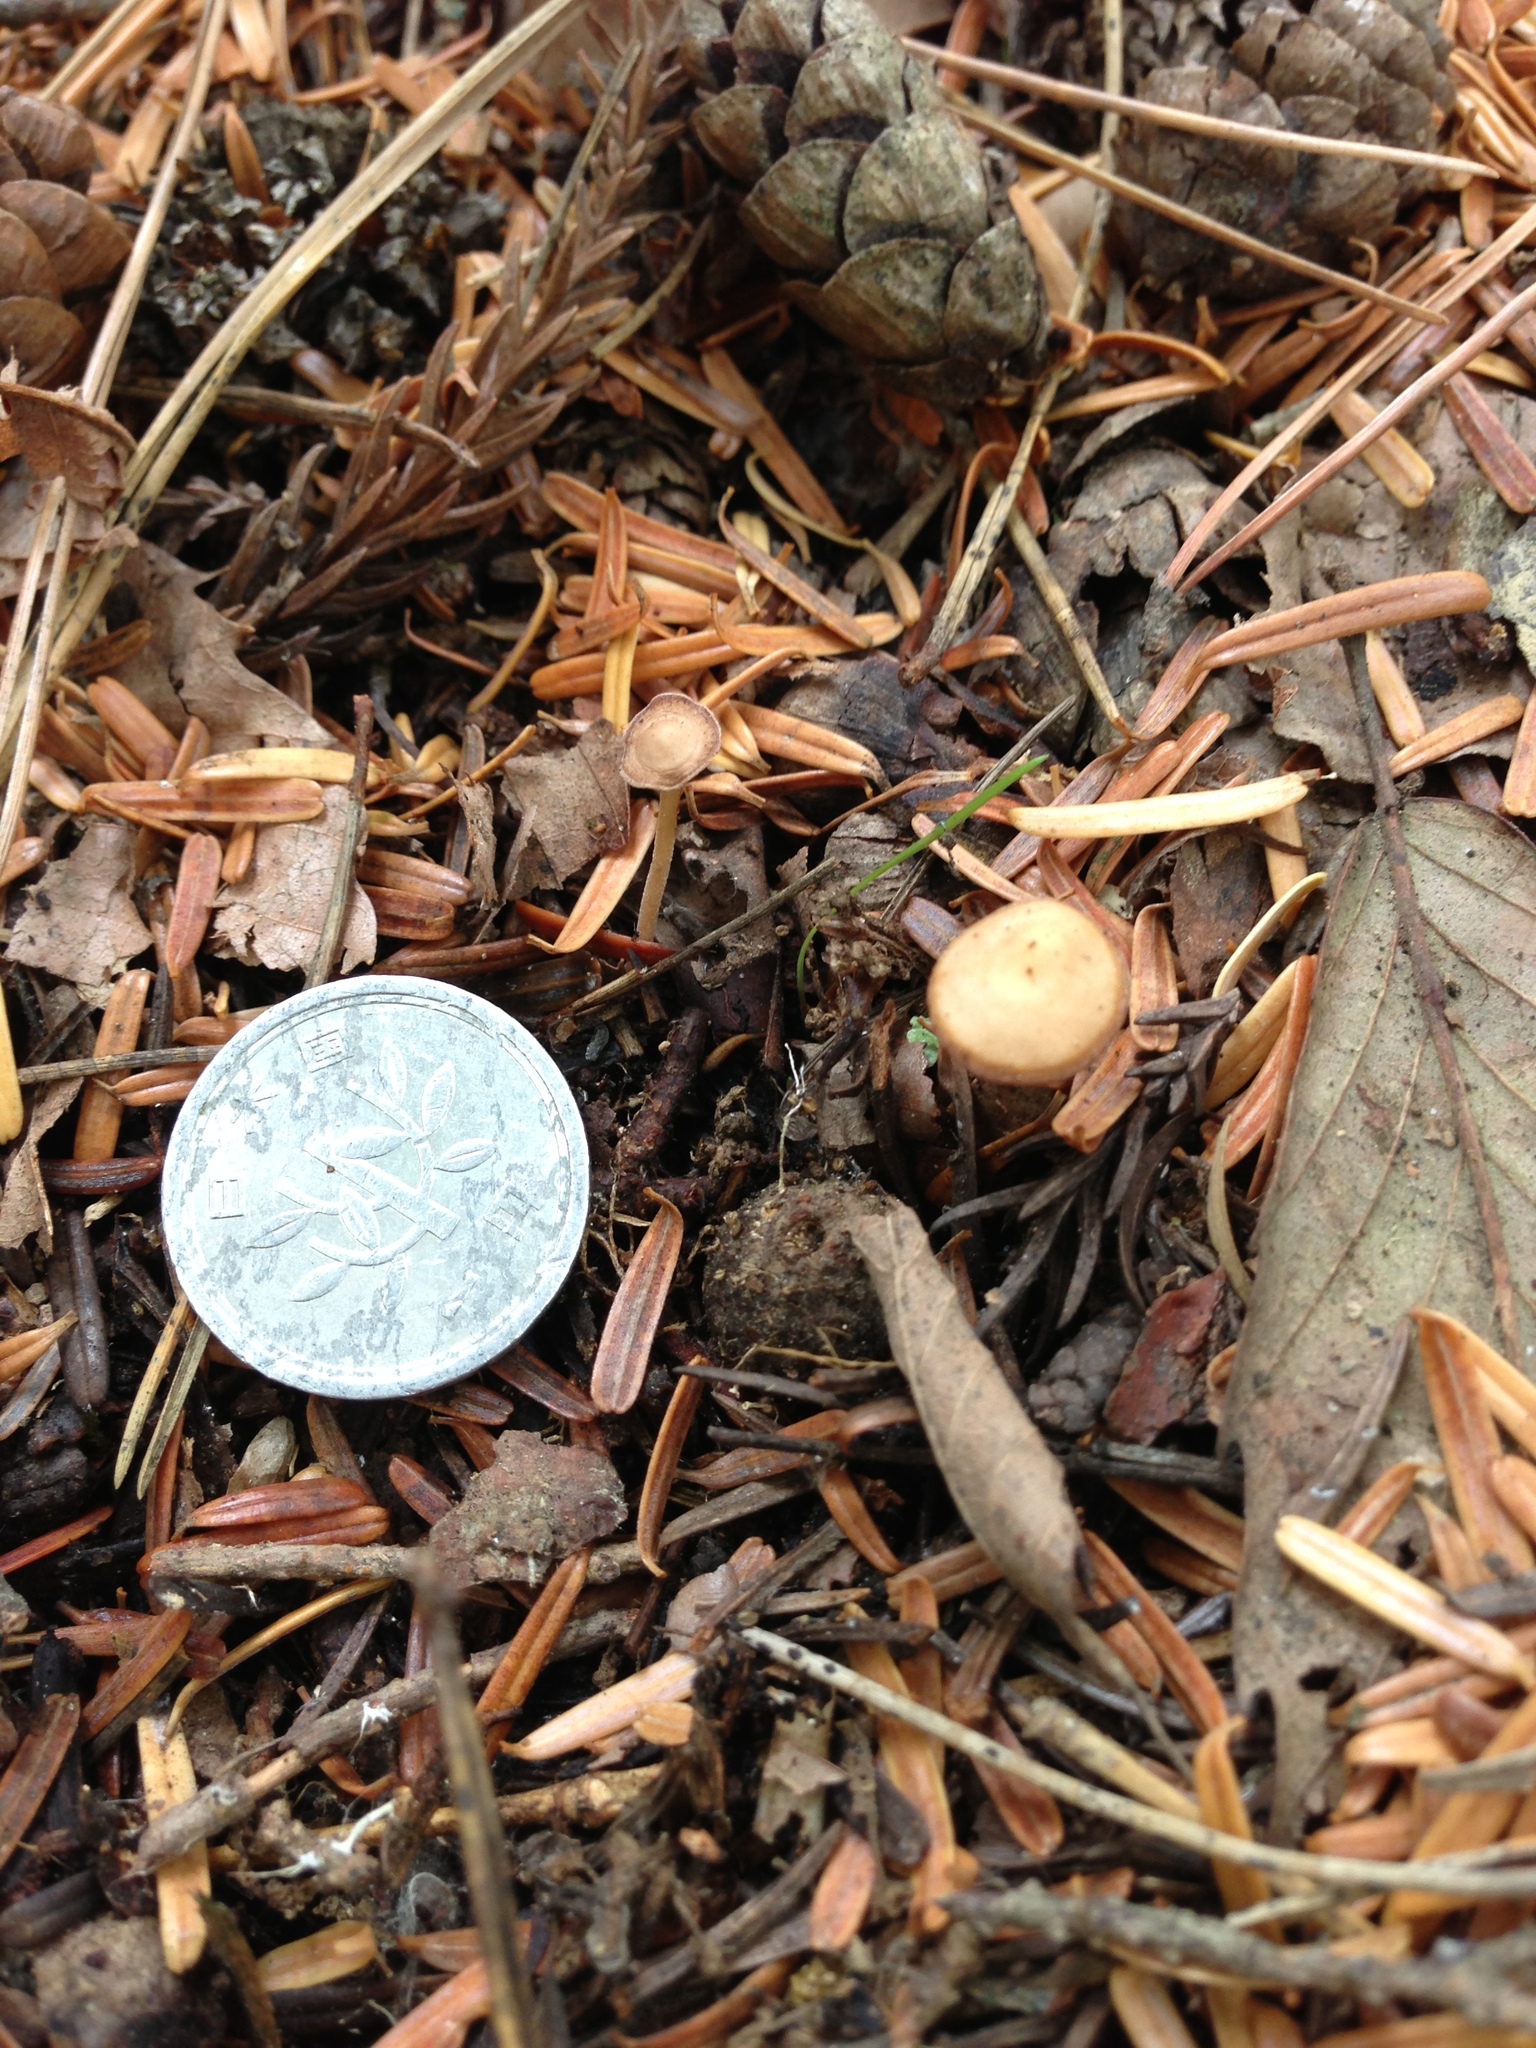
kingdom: Fungi
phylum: Basidiomycota
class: Agaricomycetes
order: Agaricales
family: Marasmiaceae
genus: Baeospora
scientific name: Baeospora myosura
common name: Conifercone cap
